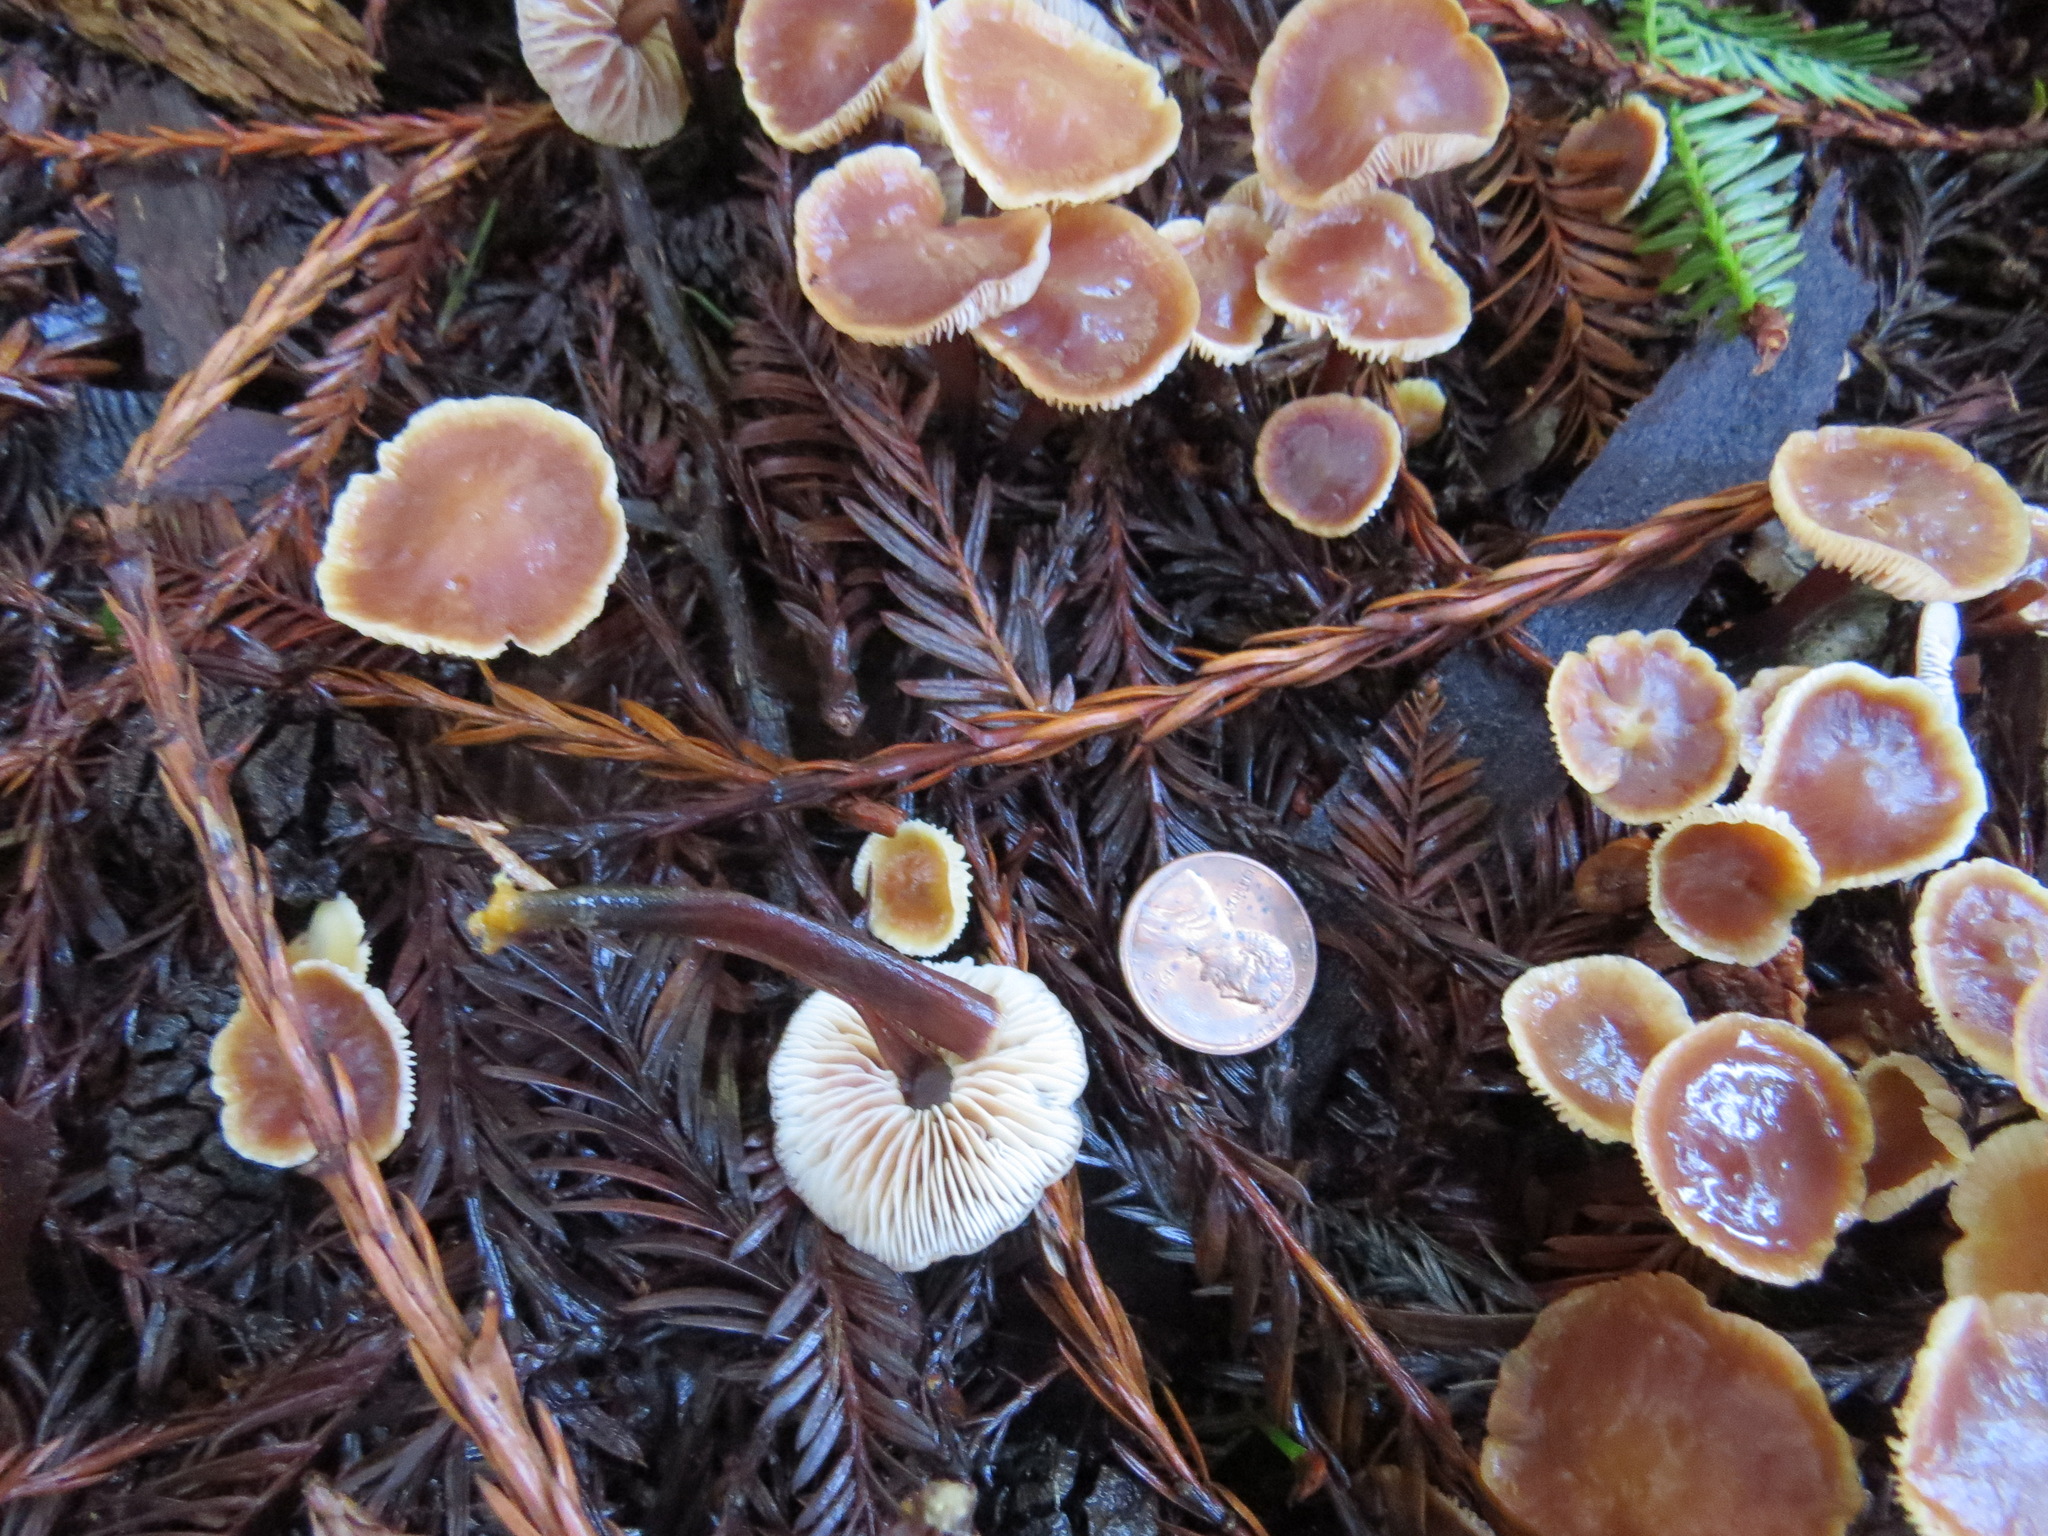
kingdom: Fungi
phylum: Basidiomycota
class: Agaricomycetes
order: Agaricales
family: Omphalotaceae
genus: Gymnopus
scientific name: Gymnopus brassicolens
